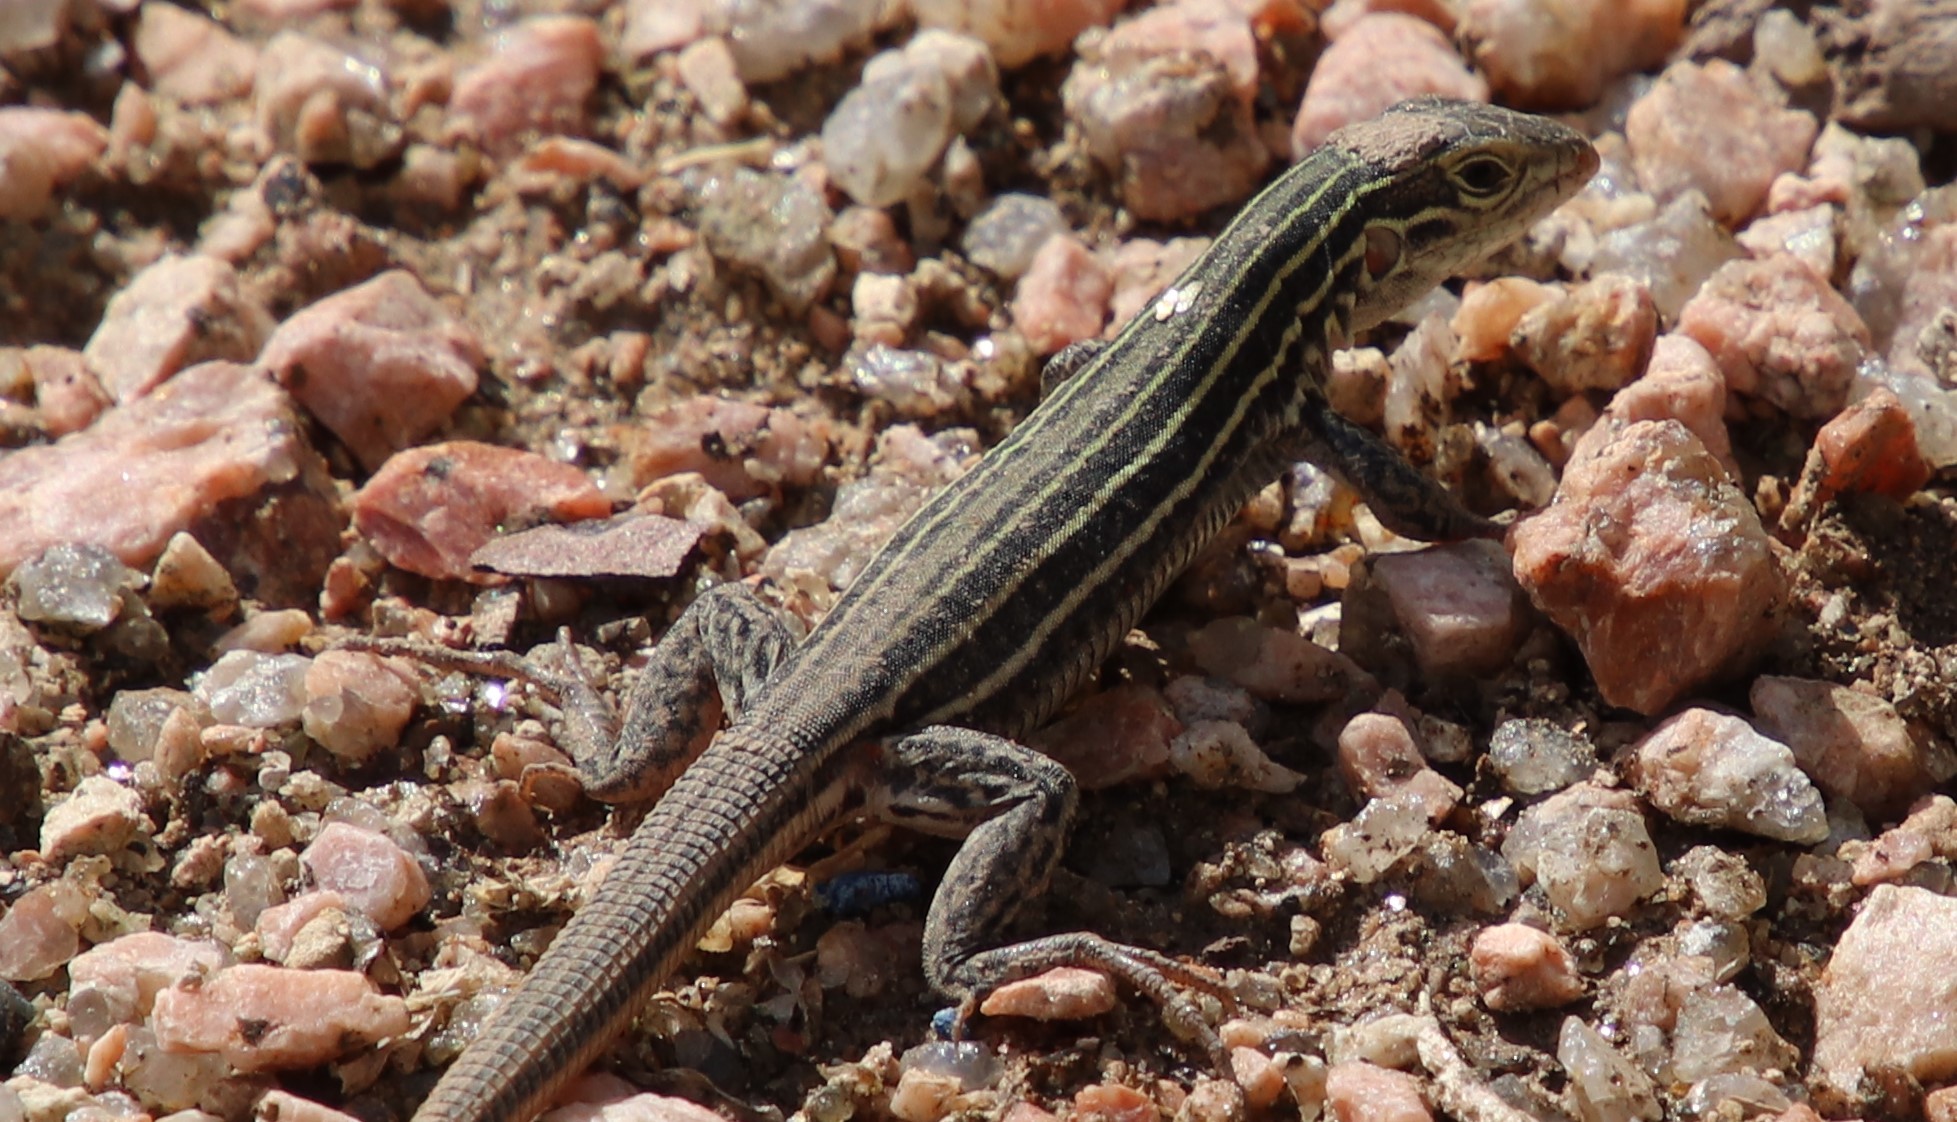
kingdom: Animalia
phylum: Chordata
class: Squamata
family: Teiidae
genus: Aspidoscelis
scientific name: Aspidoscelis gularis
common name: Eastern spotted whiptail
